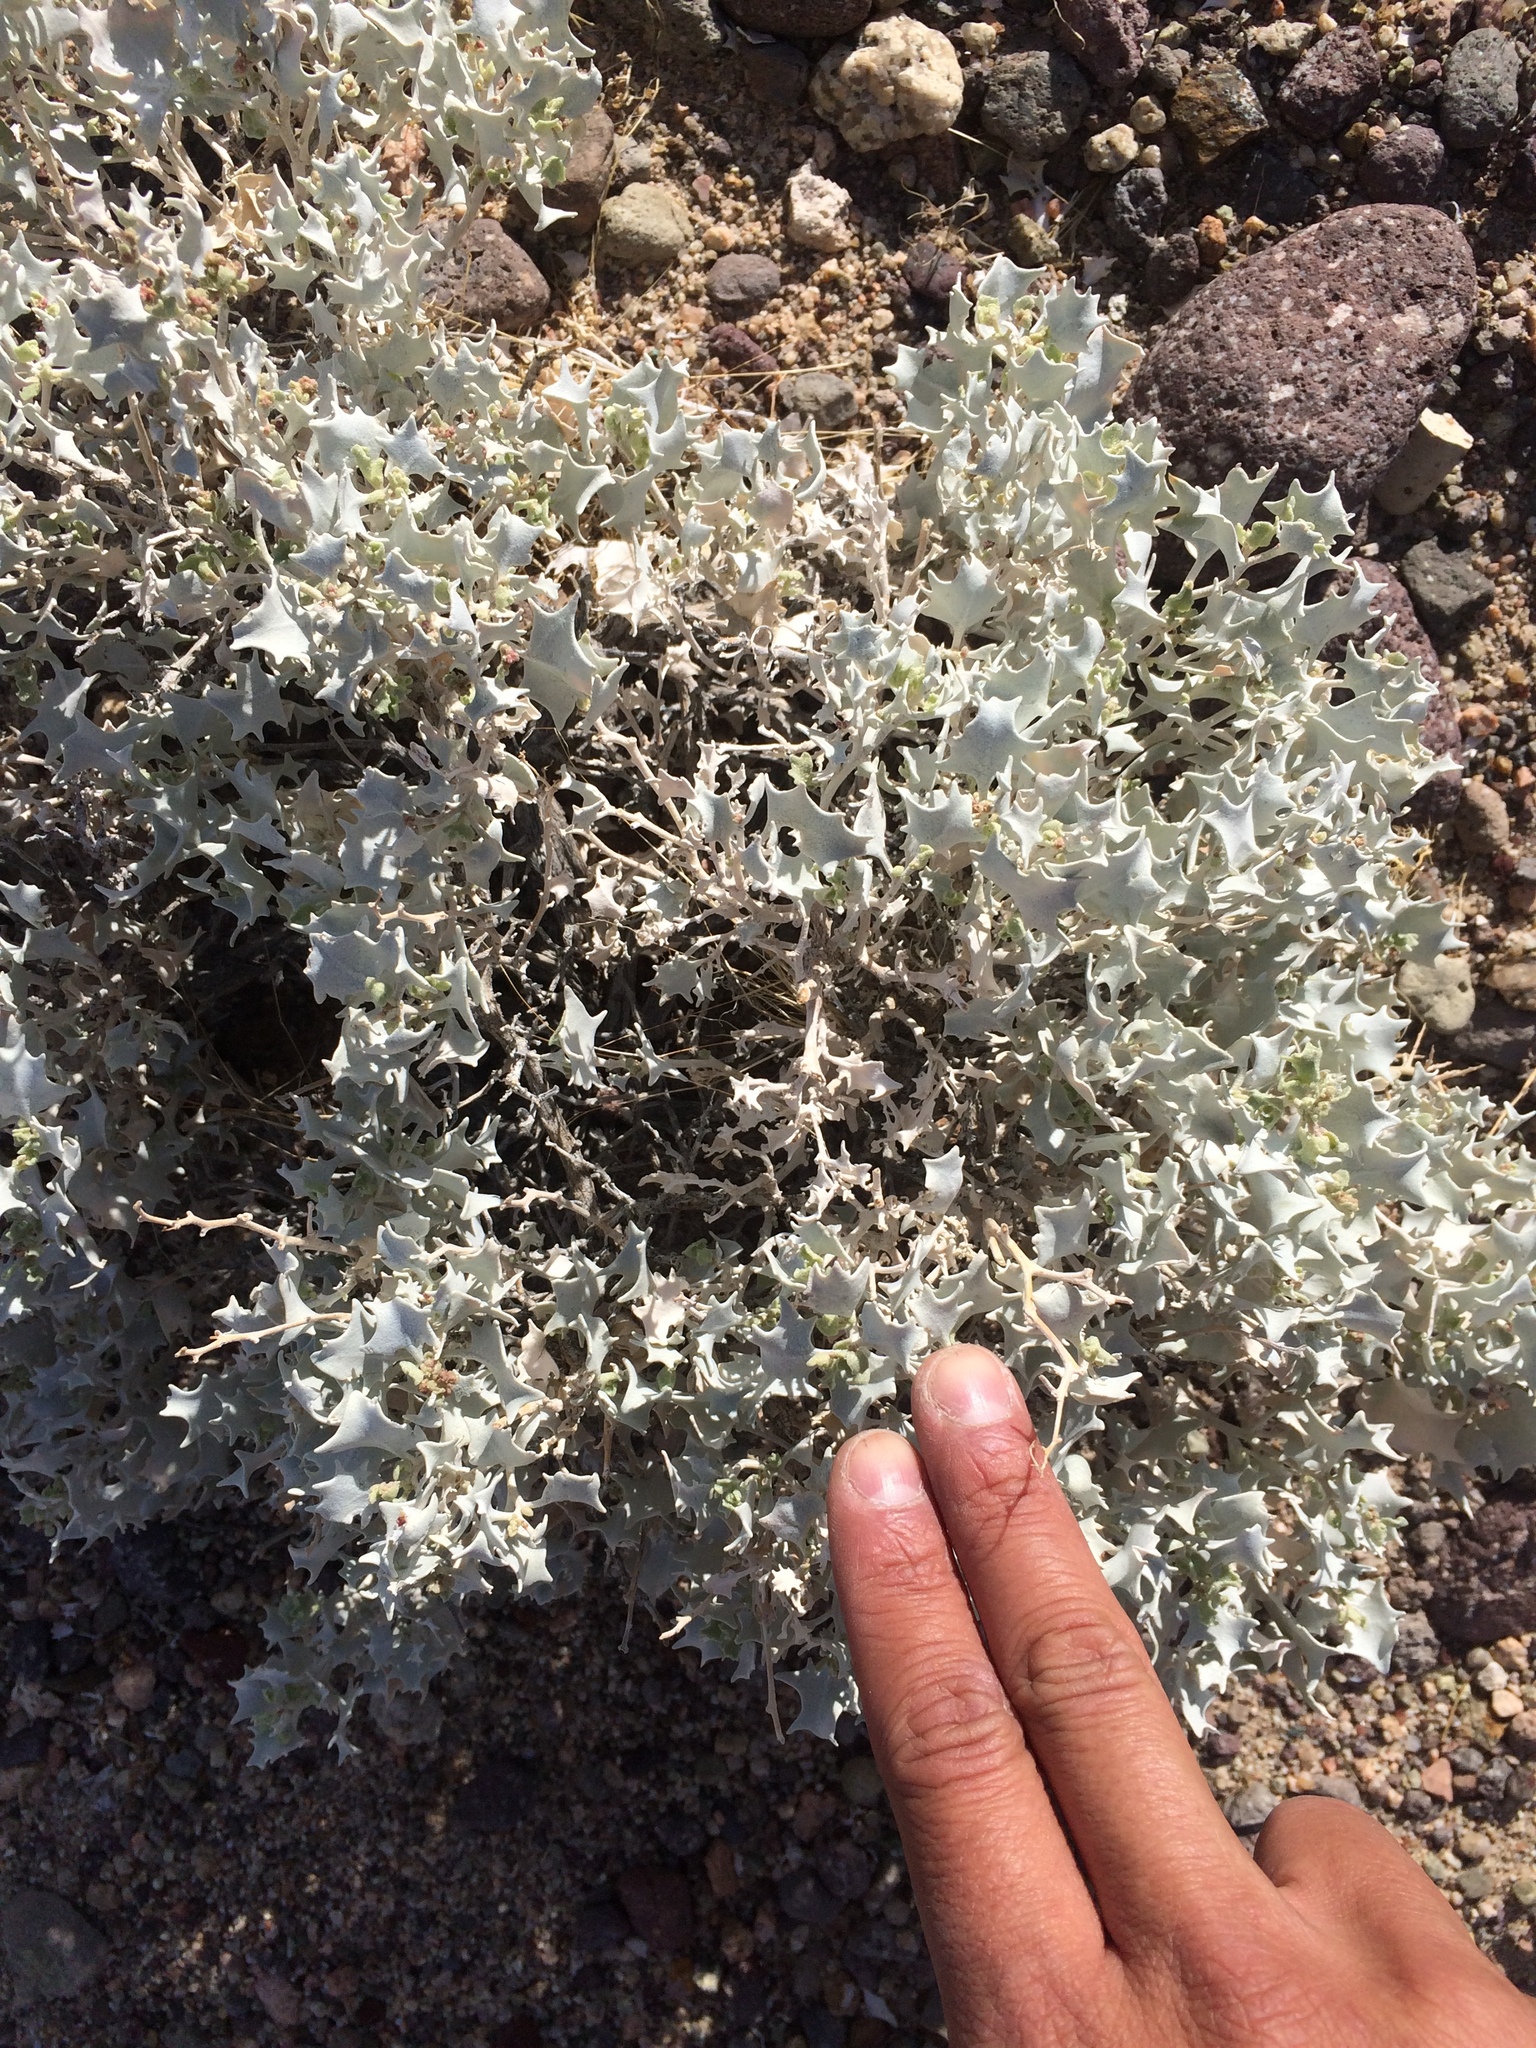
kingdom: Plantae
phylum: Tracheophyta
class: Magnoliopsida
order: Caryophyllales
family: Amaranthaceae
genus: Atriplex
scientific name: Atriplex hymenelytra
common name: Desert-holly
